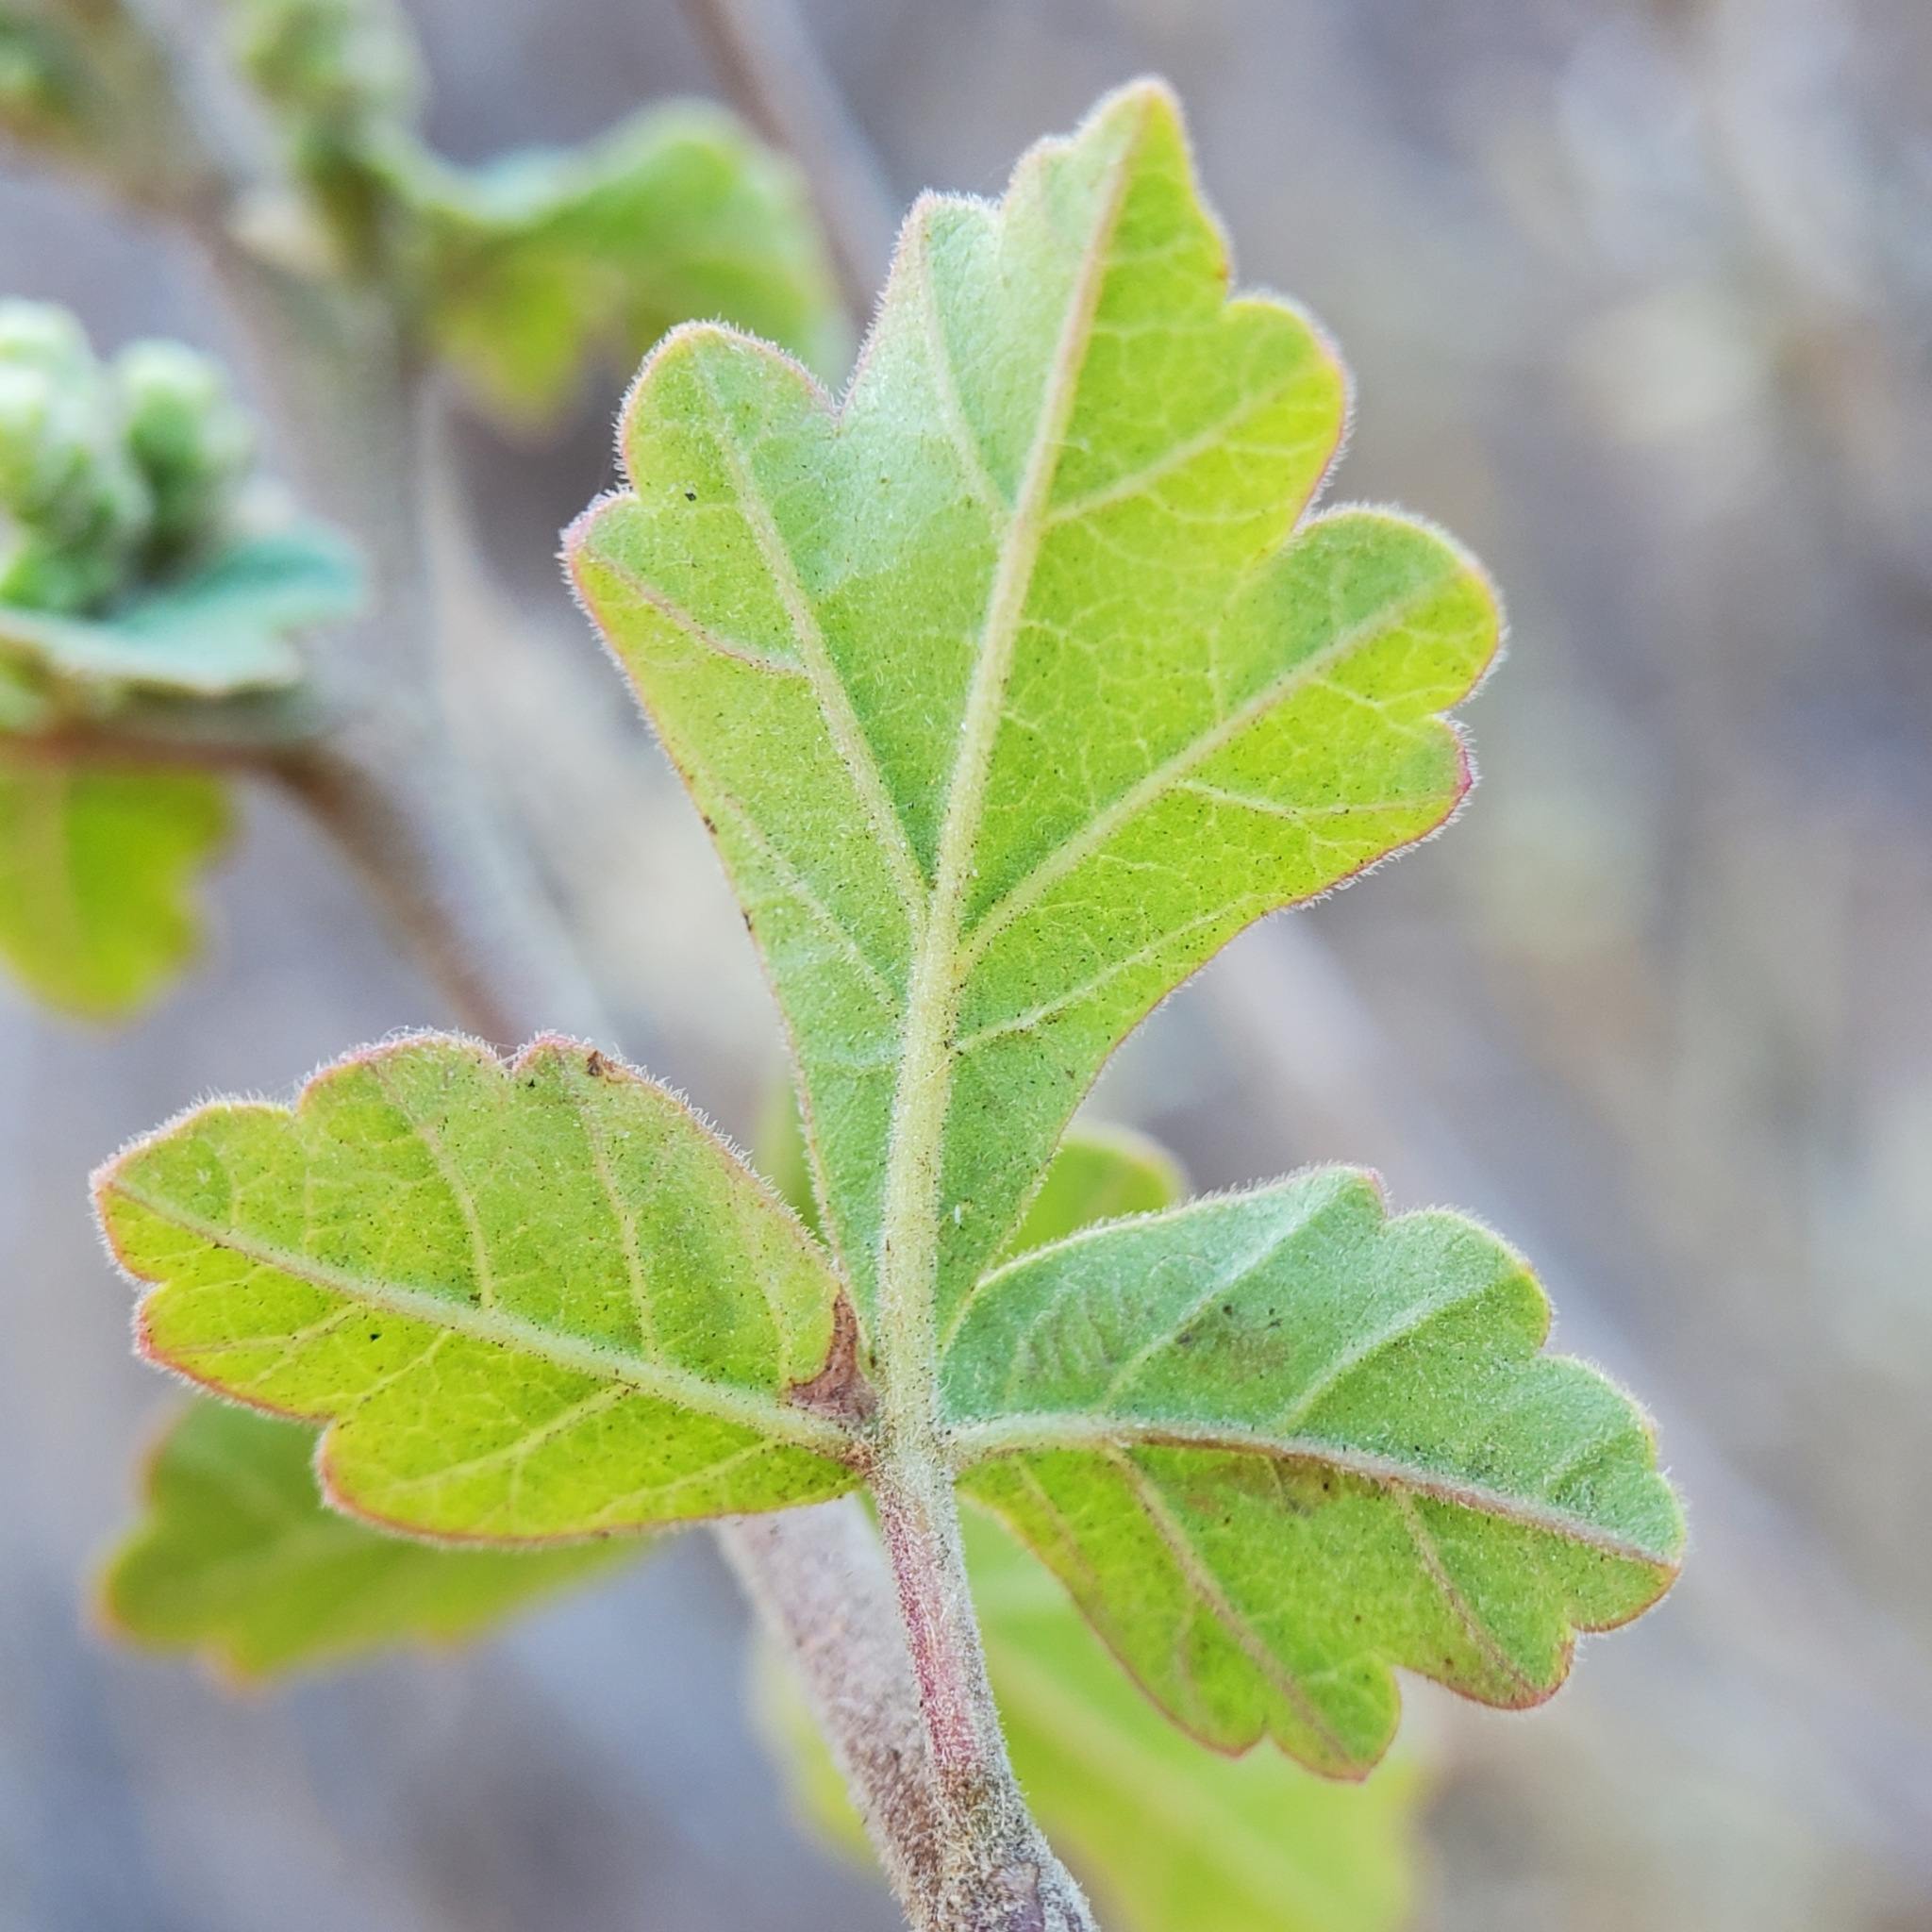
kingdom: Plantae
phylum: Tracheophyta
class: Magnoliopsida
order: Sapindales
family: Anacardiaceae
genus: Rhus
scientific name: Rhus aromatica
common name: Aromatic sumac
